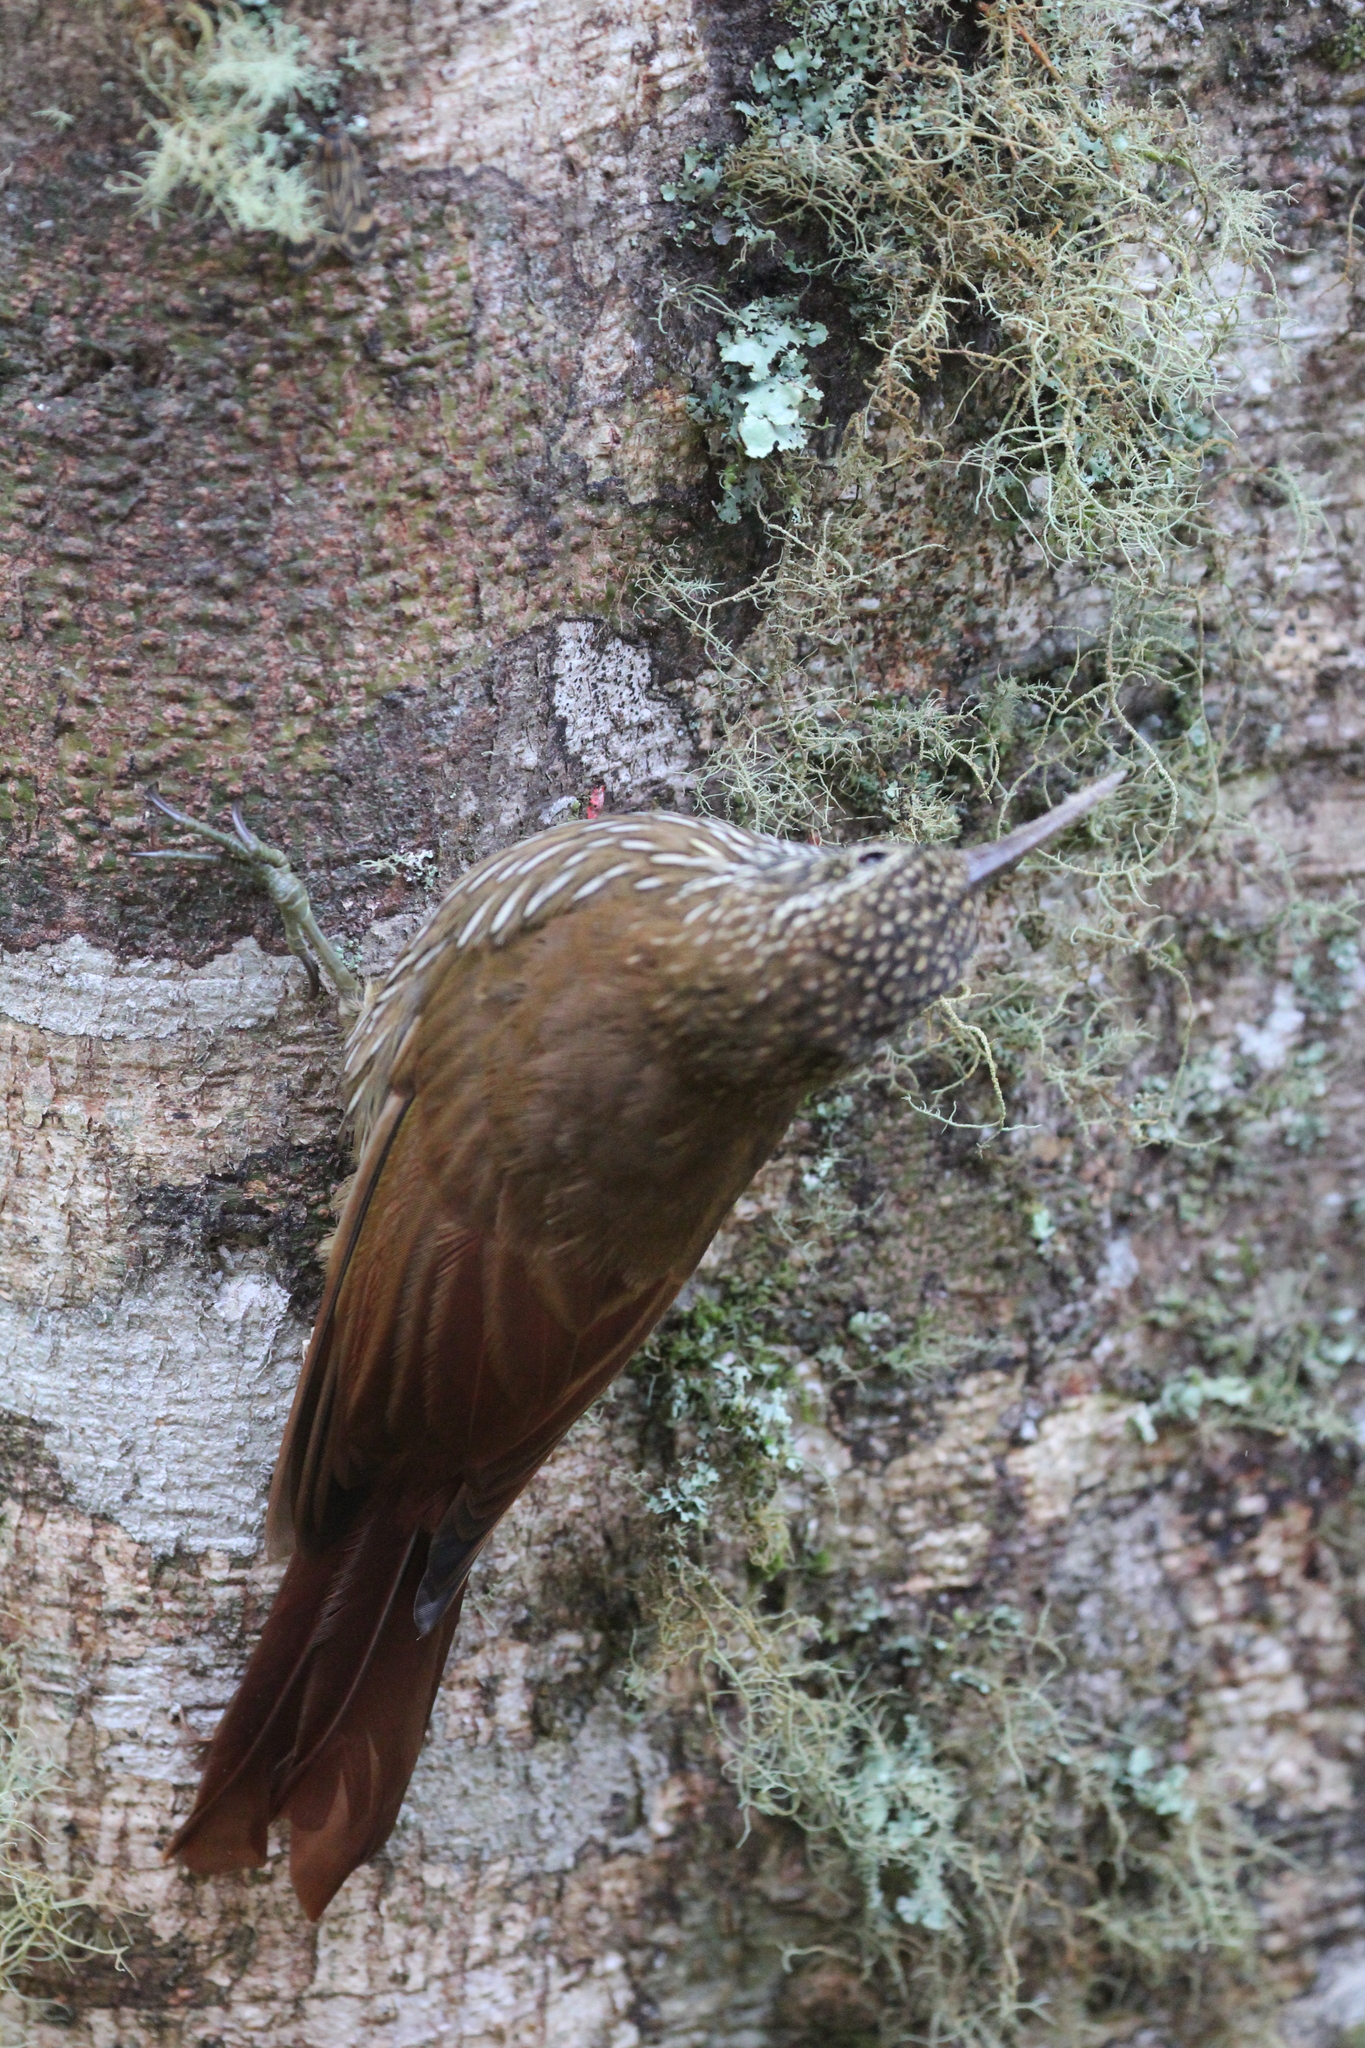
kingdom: Animalia
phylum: Chordata
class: Aves
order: Passeriformes
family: Furnariidae
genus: Lepidocolaptes
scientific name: Lepidocolaptes lacrymiger
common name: Montane woodcreeper
